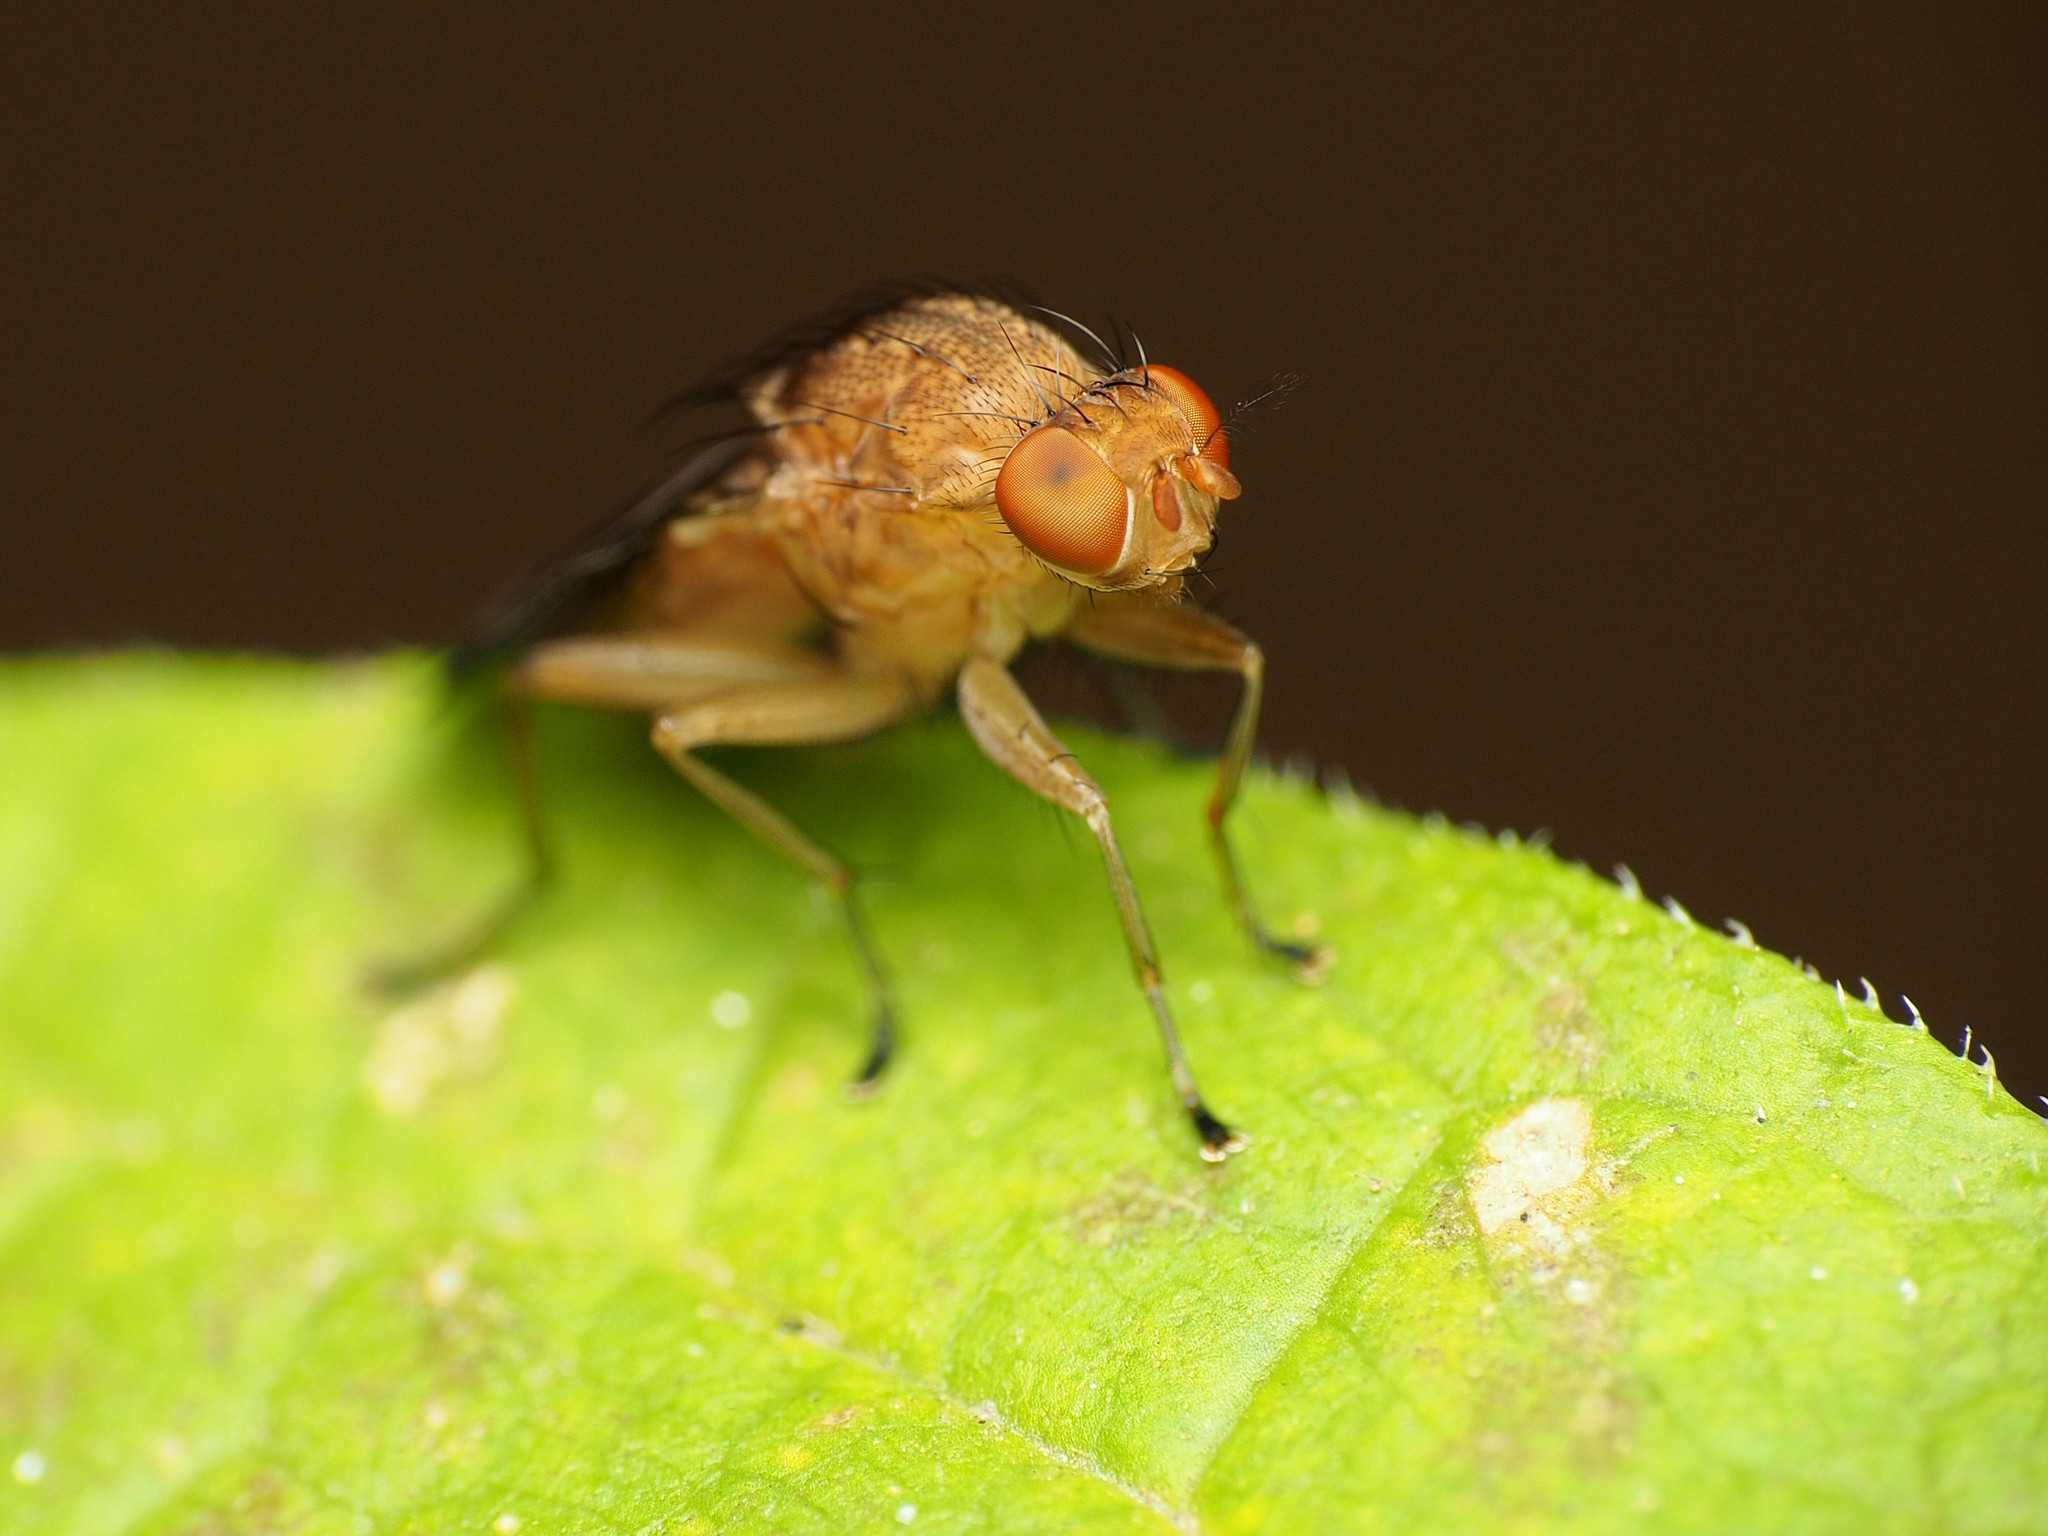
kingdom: Animalia
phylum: Arthropoda
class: Insecta
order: Diptera
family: Heleomyzidae
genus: Suillia
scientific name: Suillia quinquepunctata
